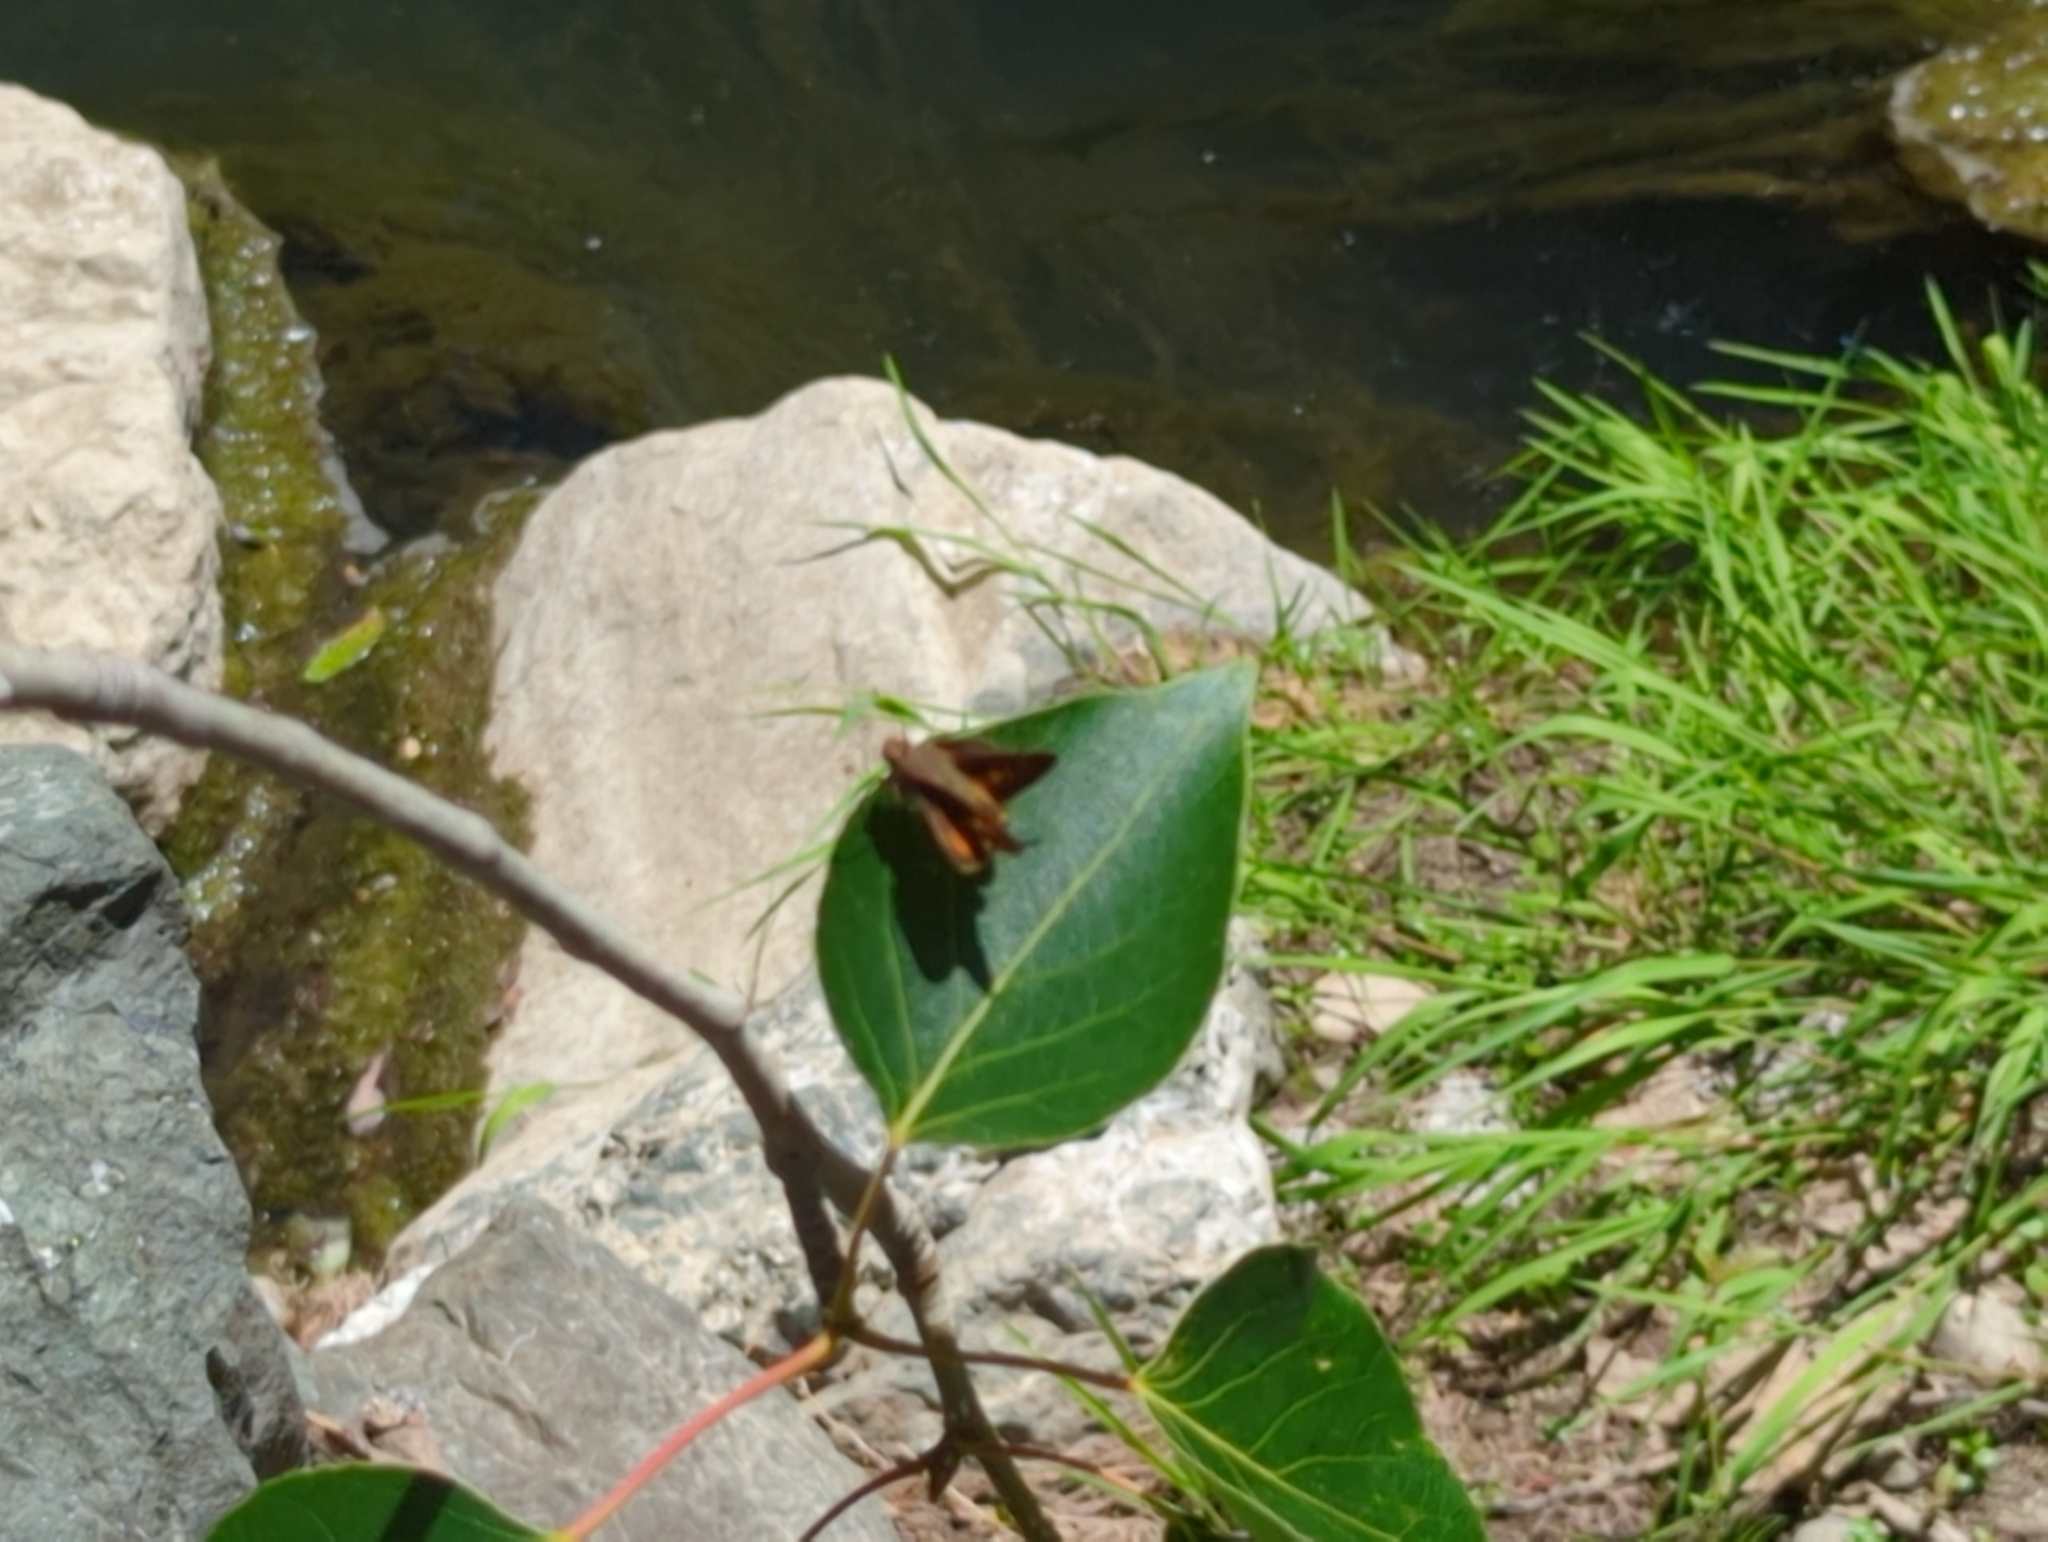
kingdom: Animalia
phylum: Arthropoda
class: Insecta
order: Lepidoptera
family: Hesperiidae
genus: Lon
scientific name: Lon melane
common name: Umber skipper
